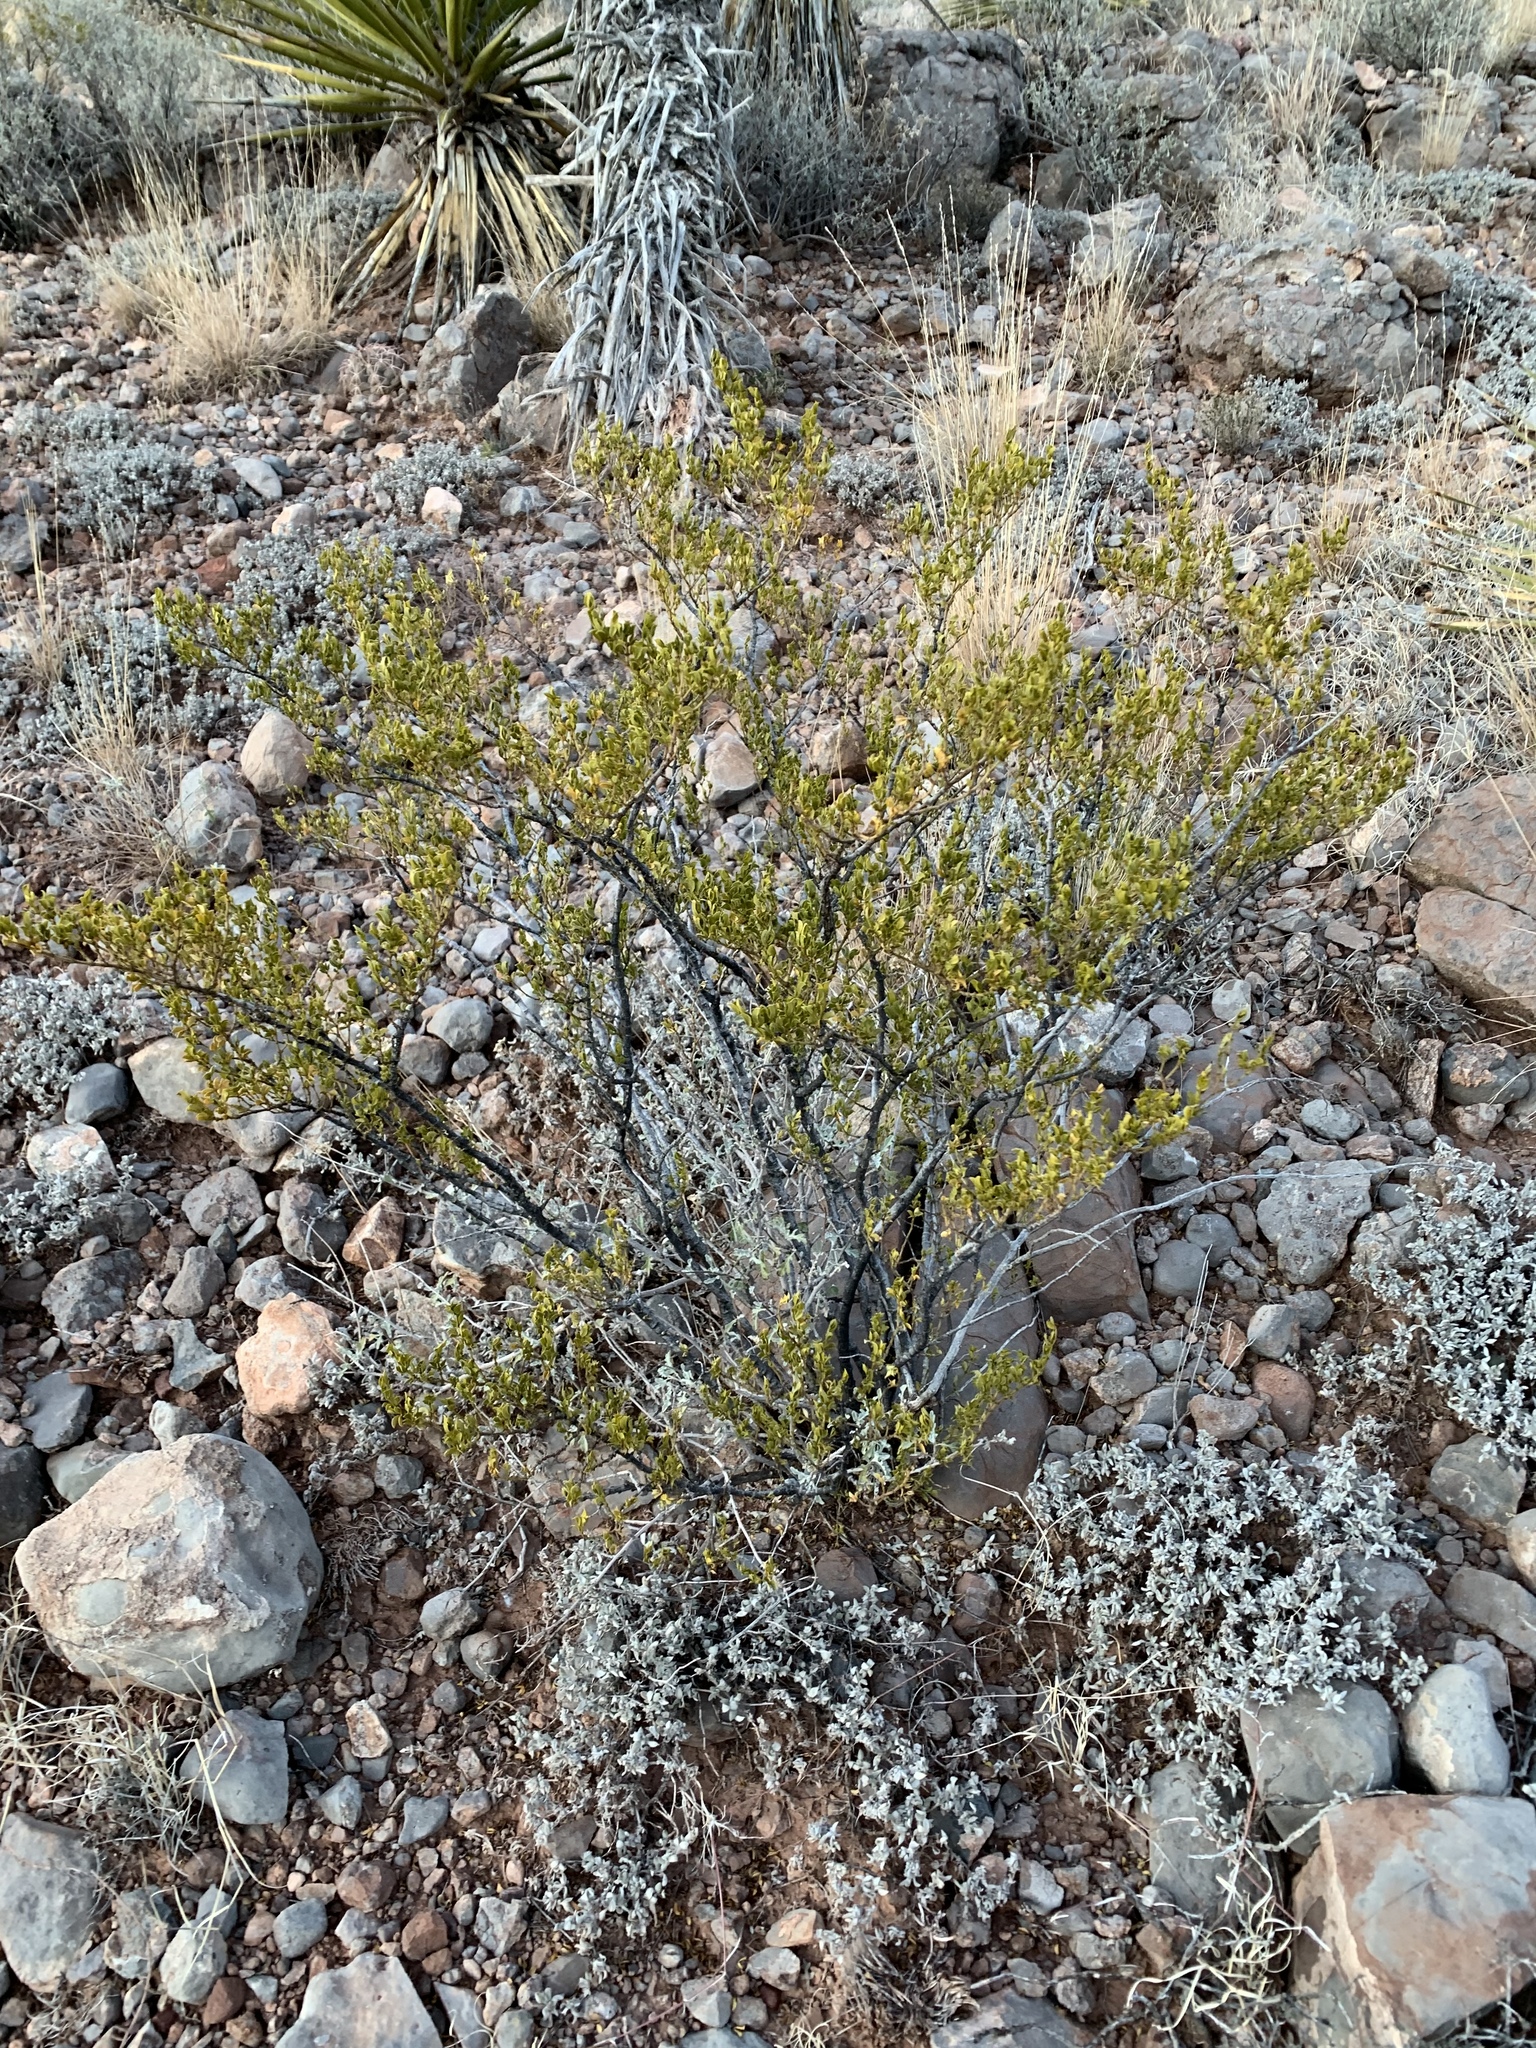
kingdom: Plantae
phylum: Tracheophyta
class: Magnoliopsida
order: Zygophyllales
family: Zygophyllaceae
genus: Larrea
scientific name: Larrea tridentata
